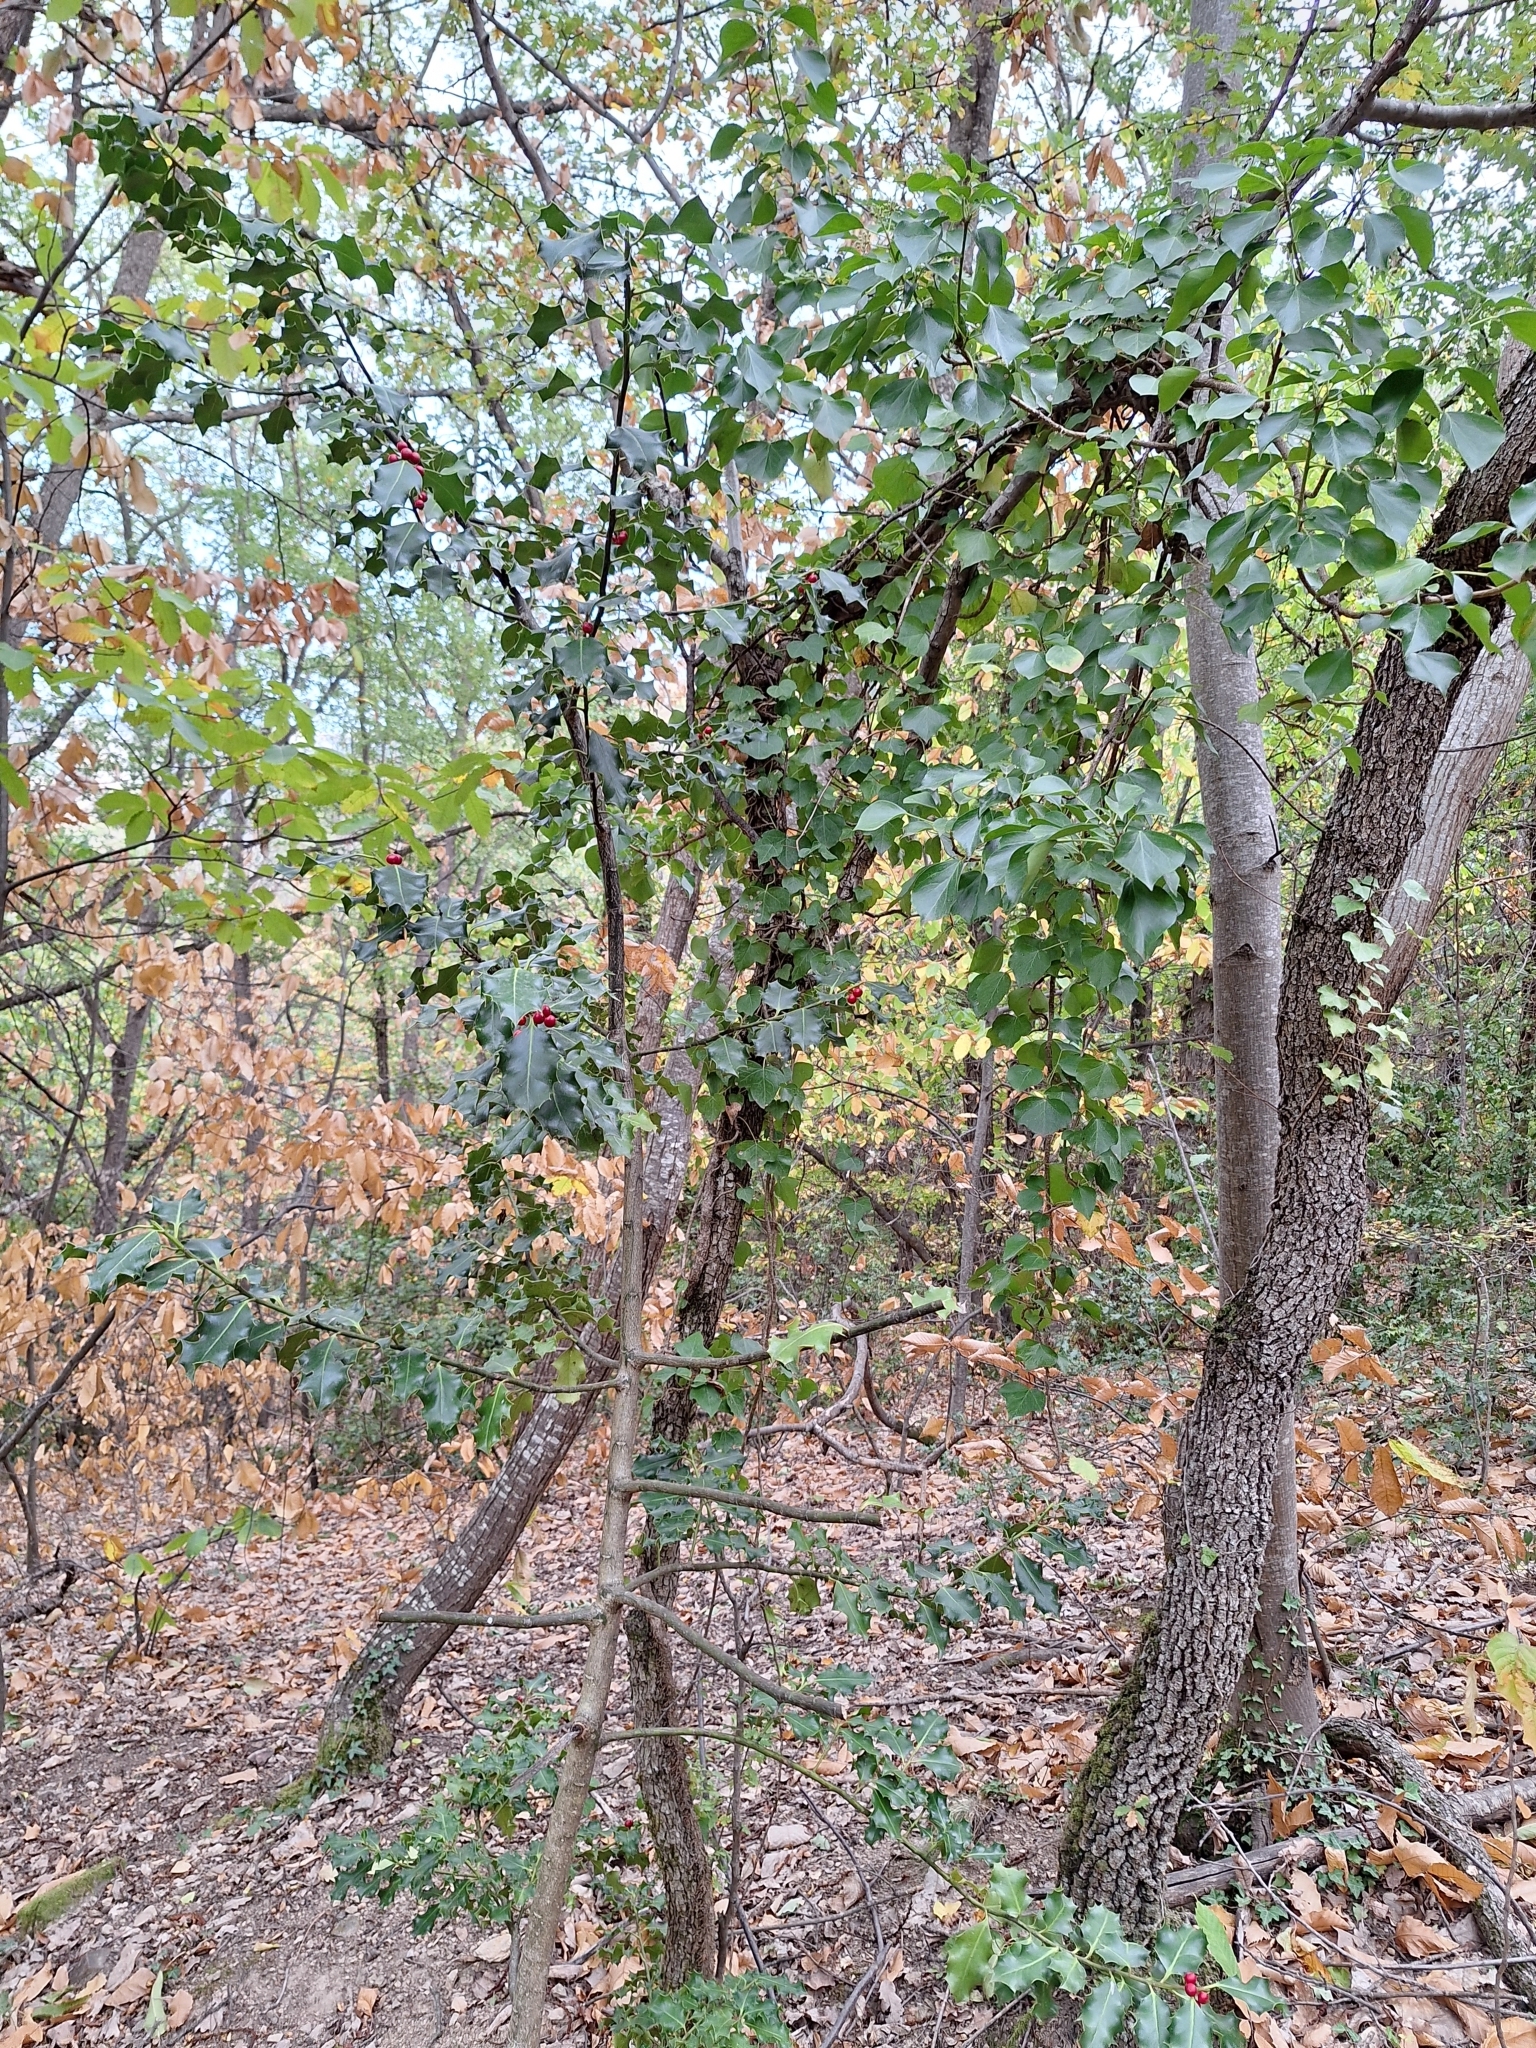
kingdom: Plantae
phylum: Tracheophyta
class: Magnoliopsida
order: Aquifoliales
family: Aquifoliaceae
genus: Ilex
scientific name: Ilex aquifolium
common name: English holly
